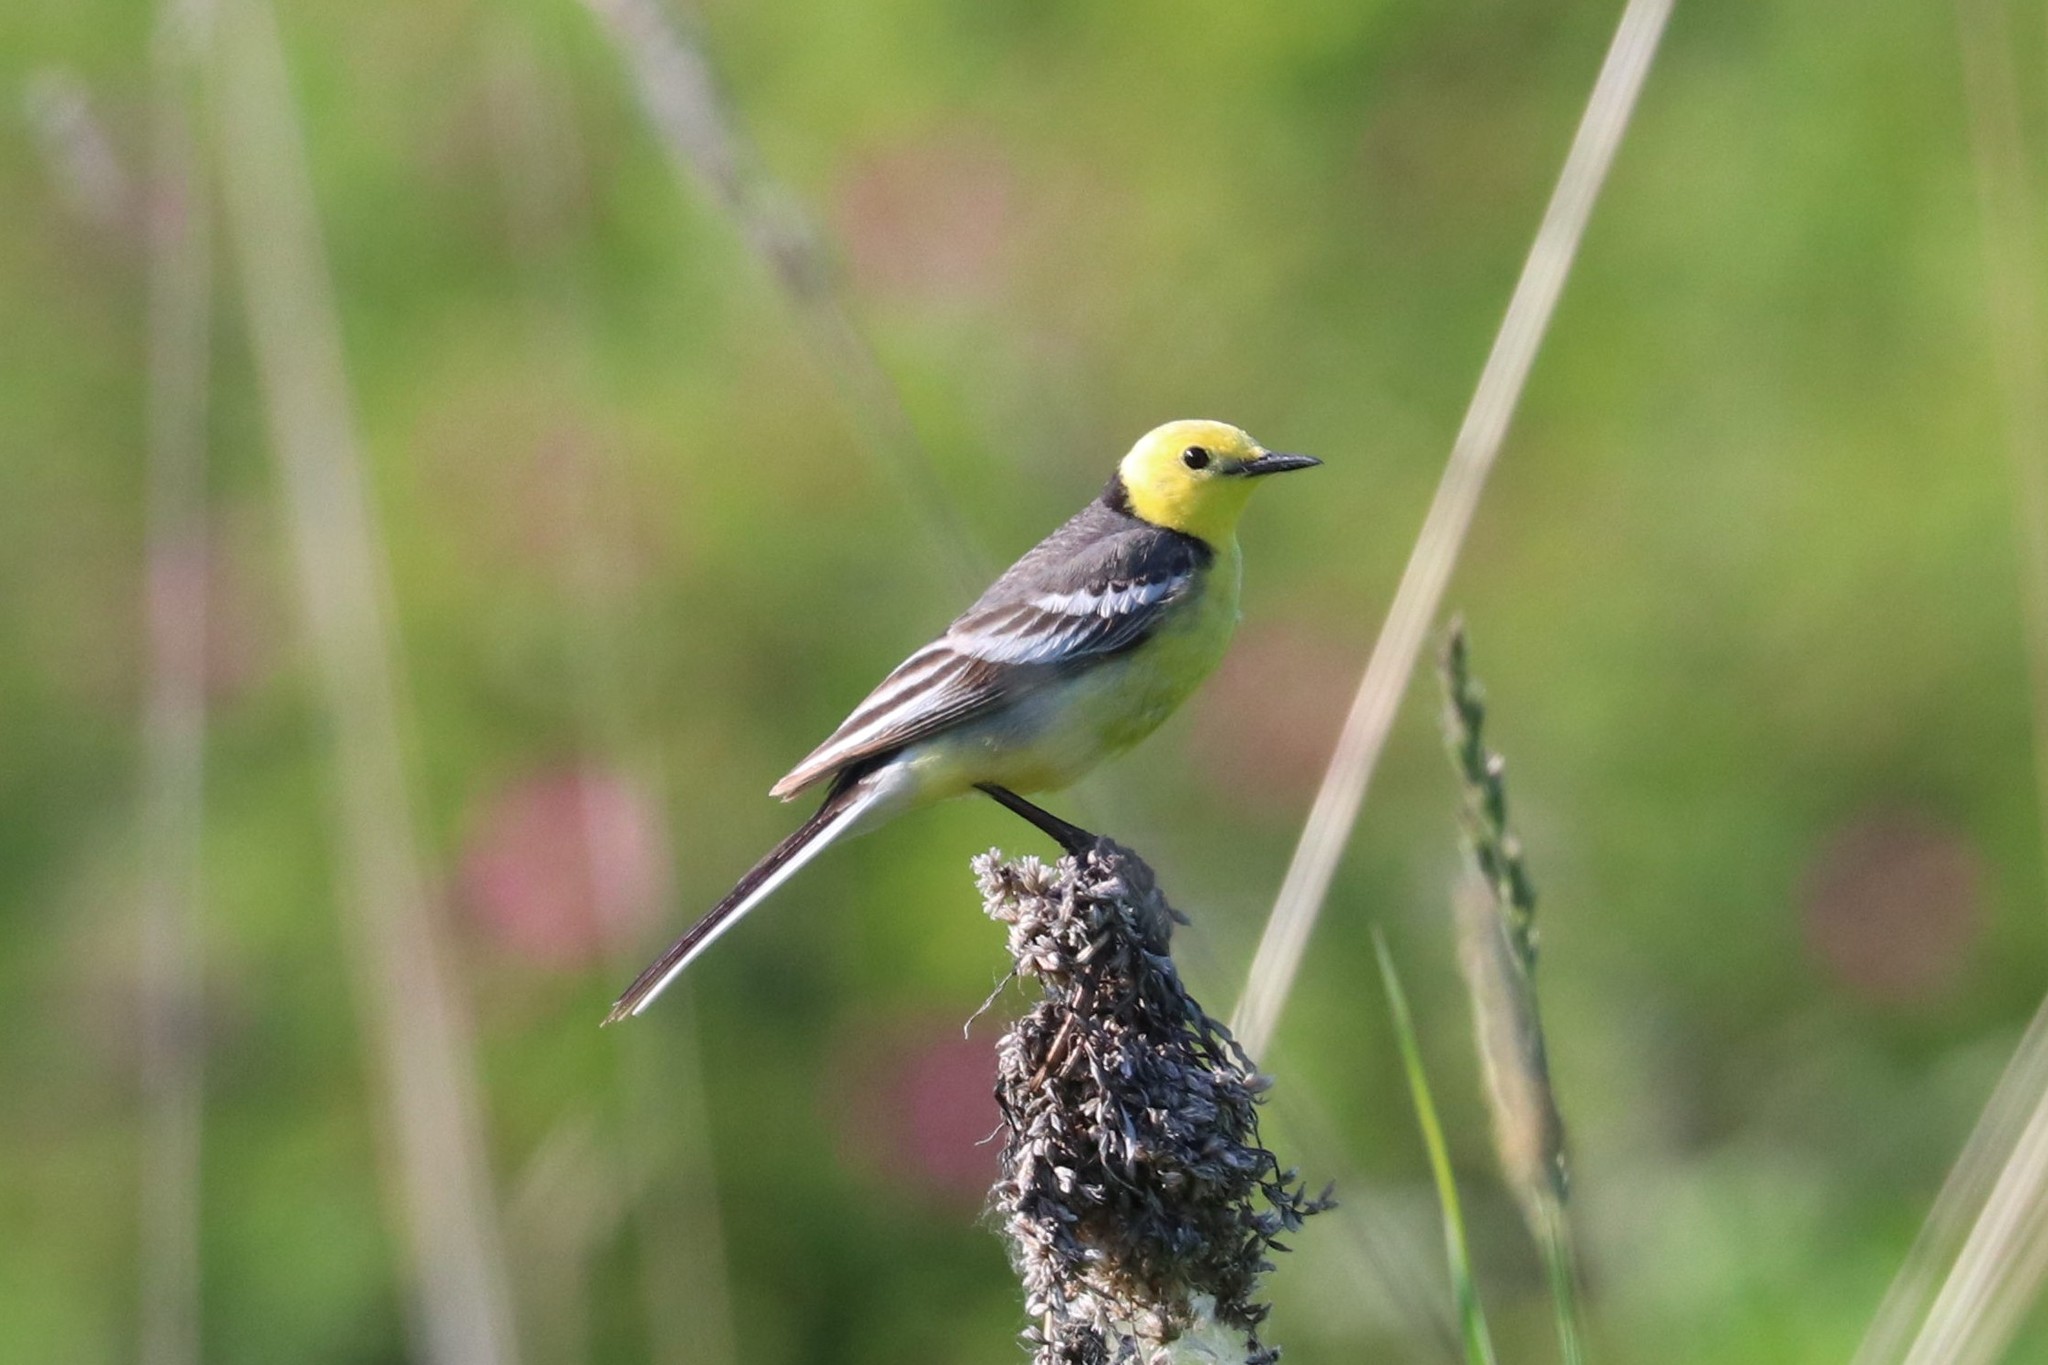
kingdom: Animalia
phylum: Chordata
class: Aves
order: Passeriformes
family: Motacillidae
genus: Motacilla
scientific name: Motacilla citreola
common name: Citrine wagtail
